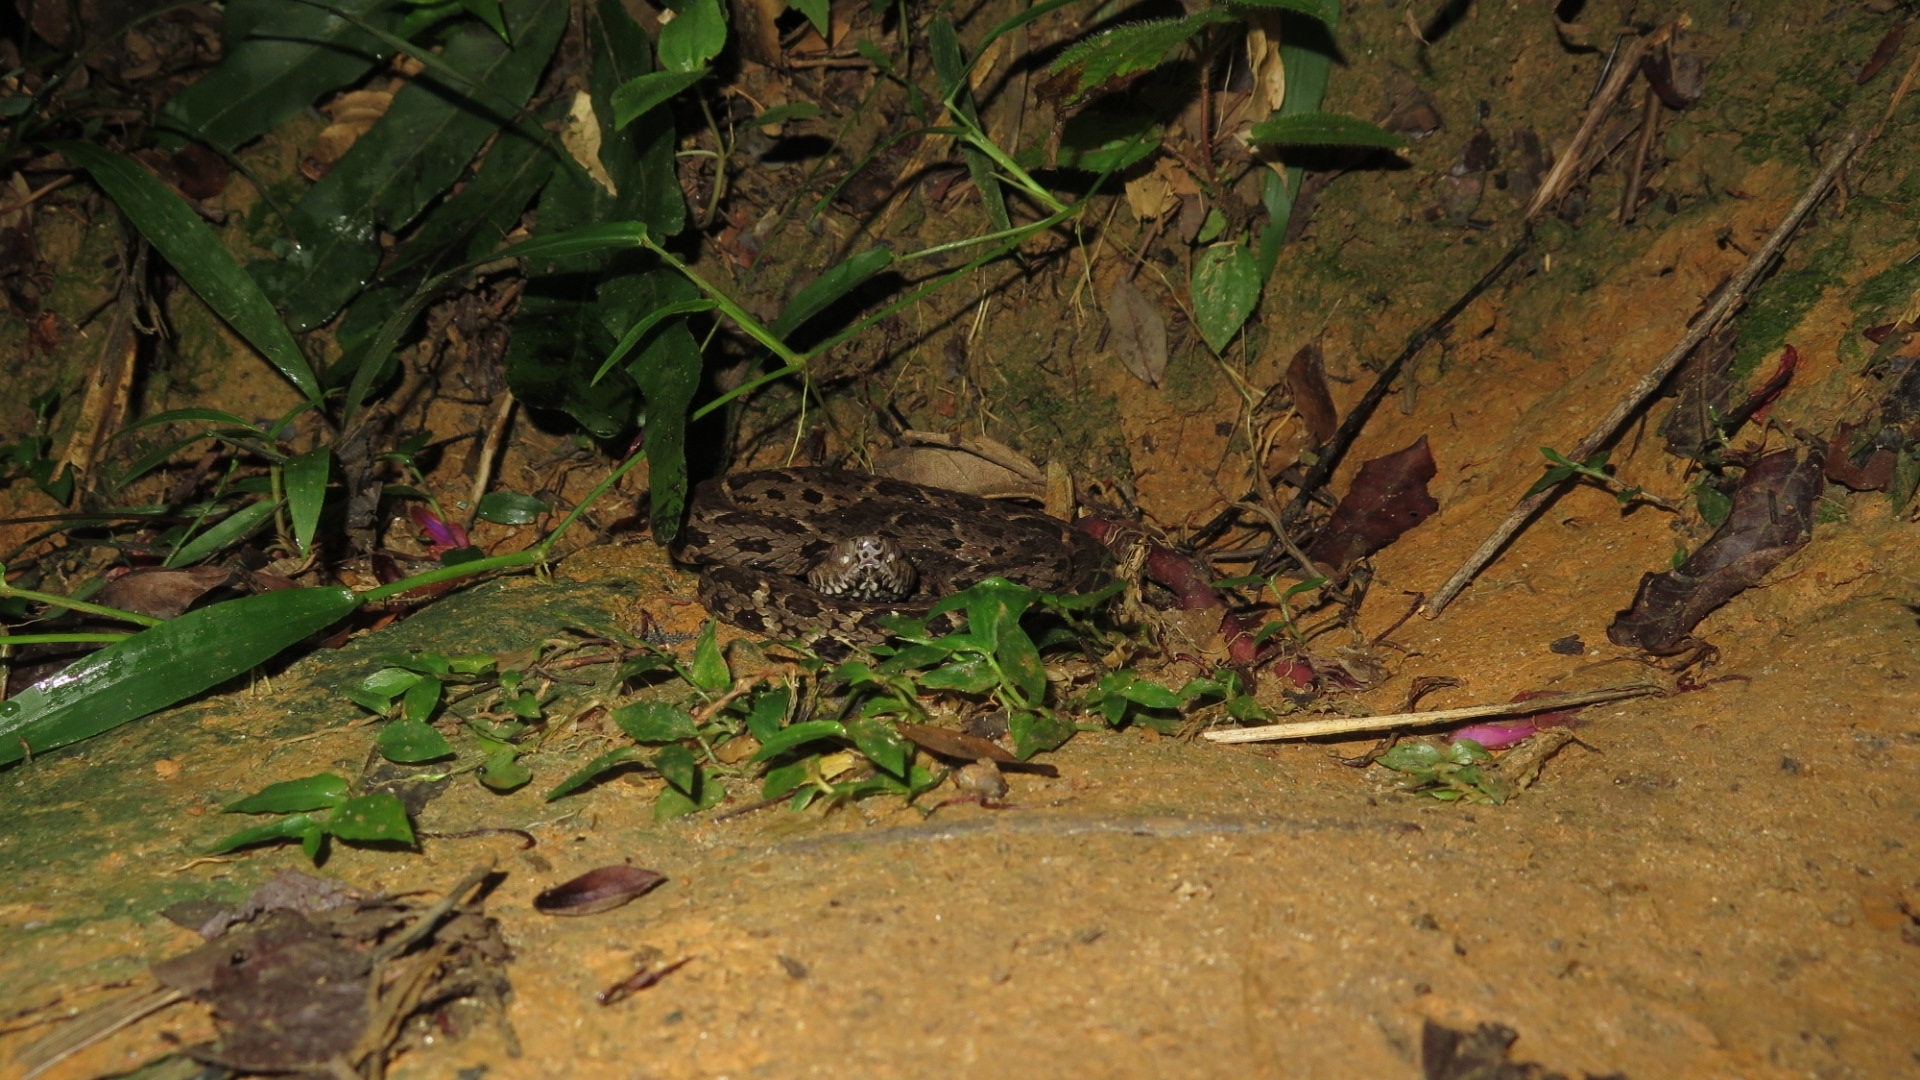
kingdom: Animalia
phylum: Chordata
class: Squamata
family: Viperidae
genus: Bothrops
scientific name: Bothrops jararacussu
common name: Jararacussu
